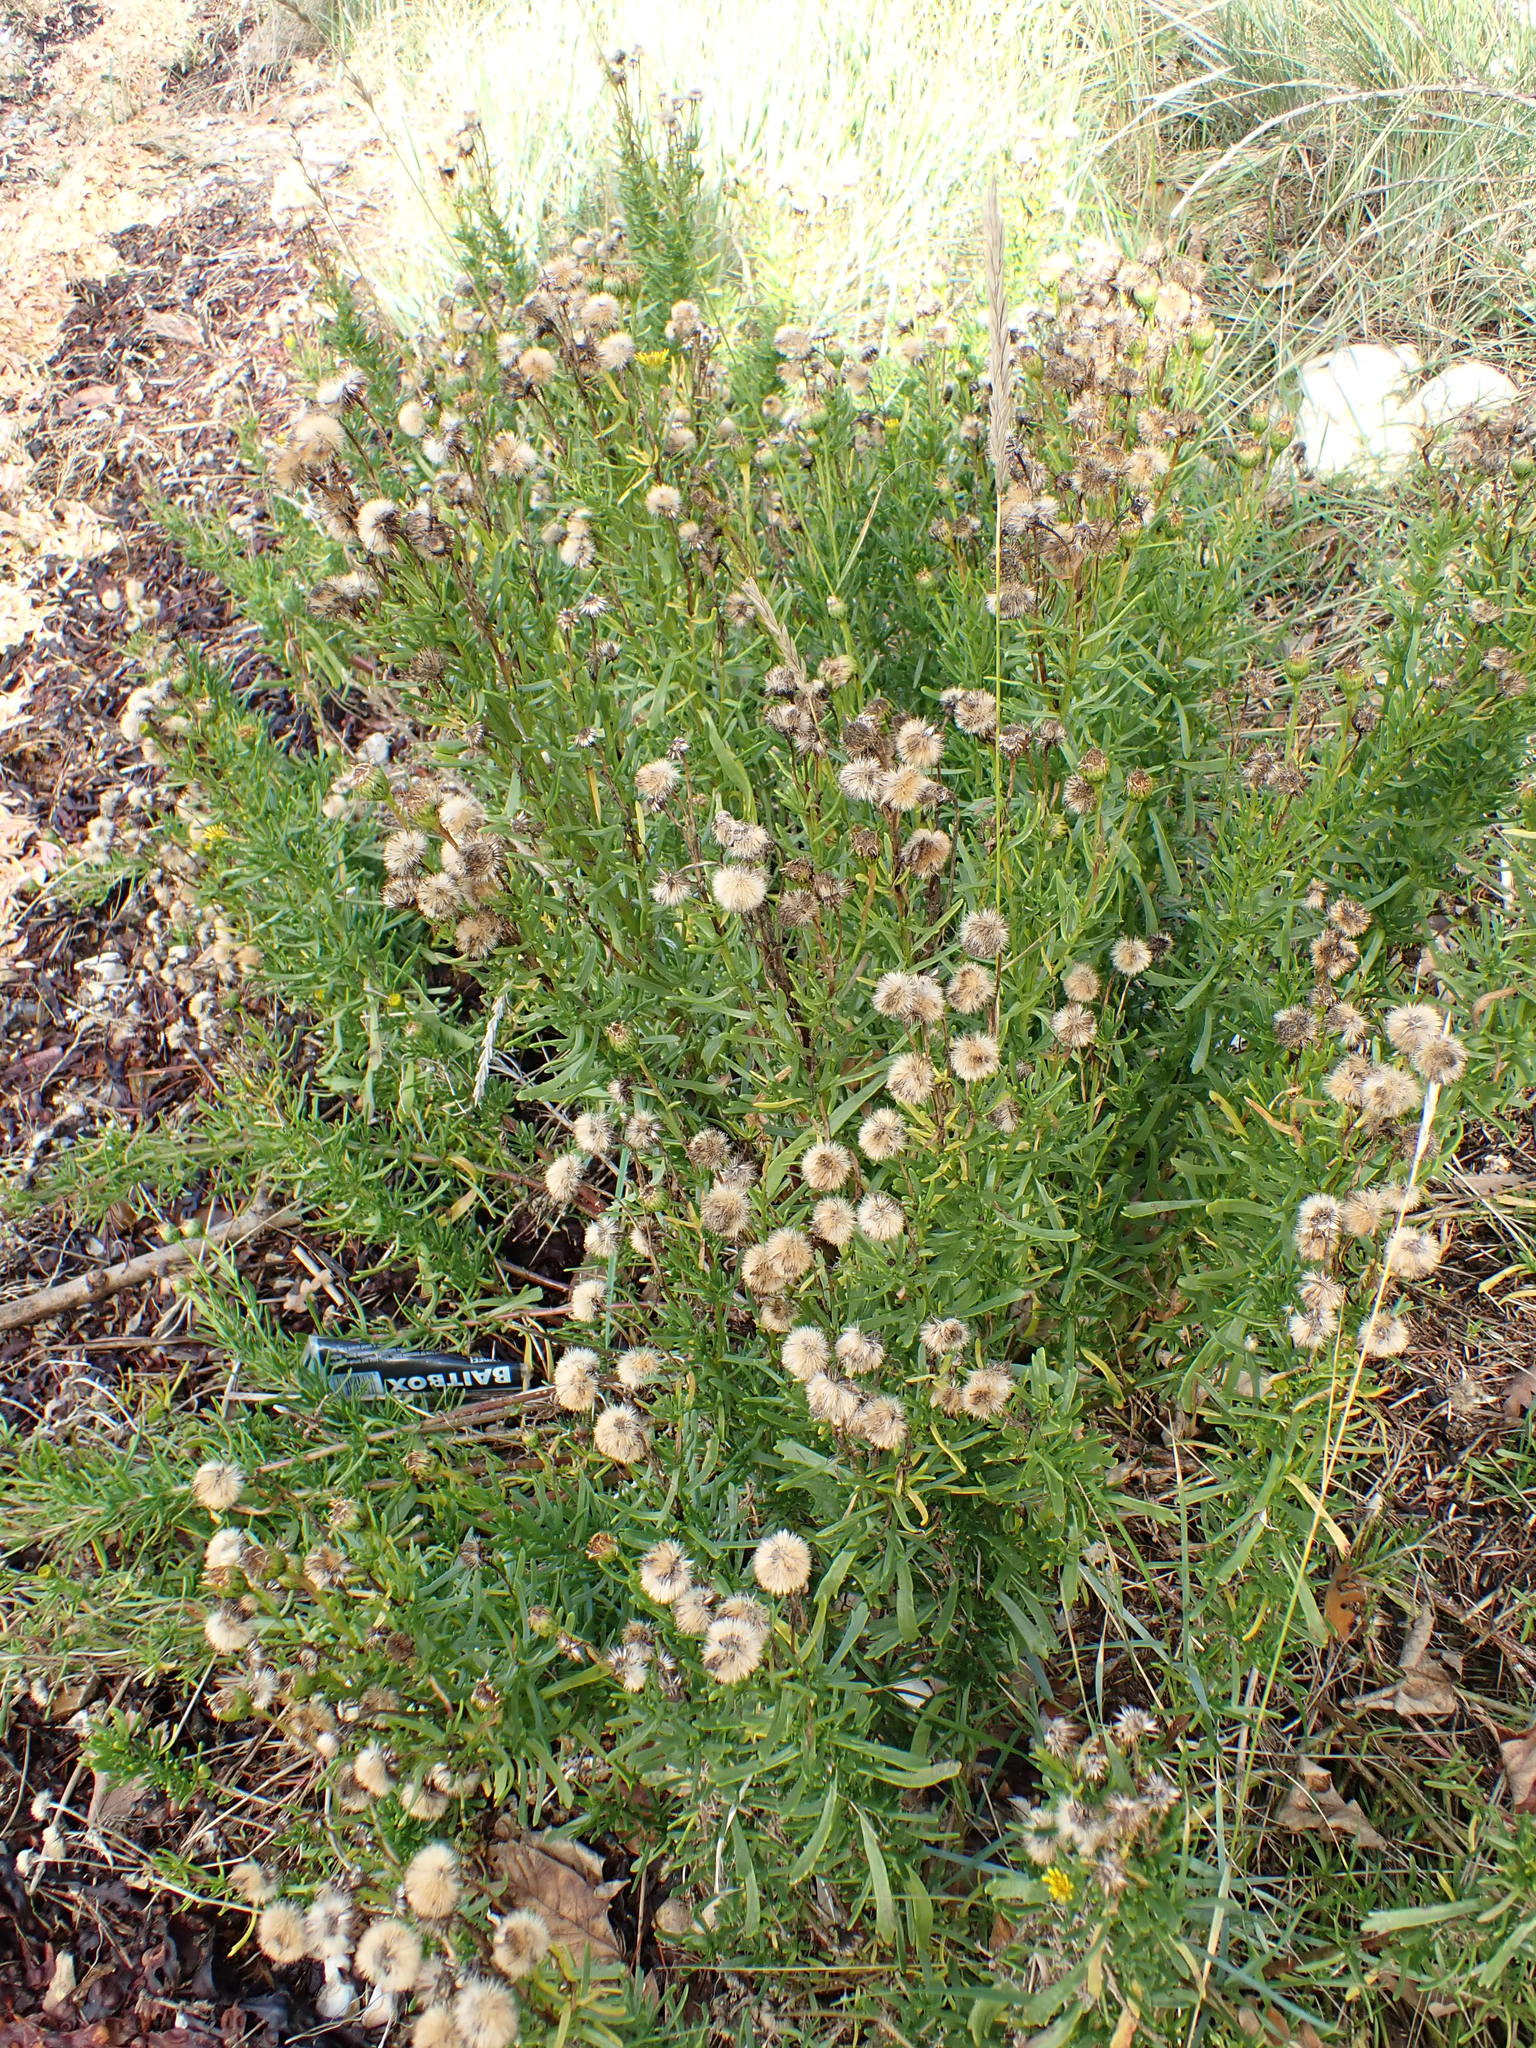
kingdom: Plantae
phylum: Tracheophyta
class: Magnoliopsida
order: Asterales
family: Asteraceae
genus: Limbarda
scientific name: Limbarda crithmoides
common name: Golden samphire
